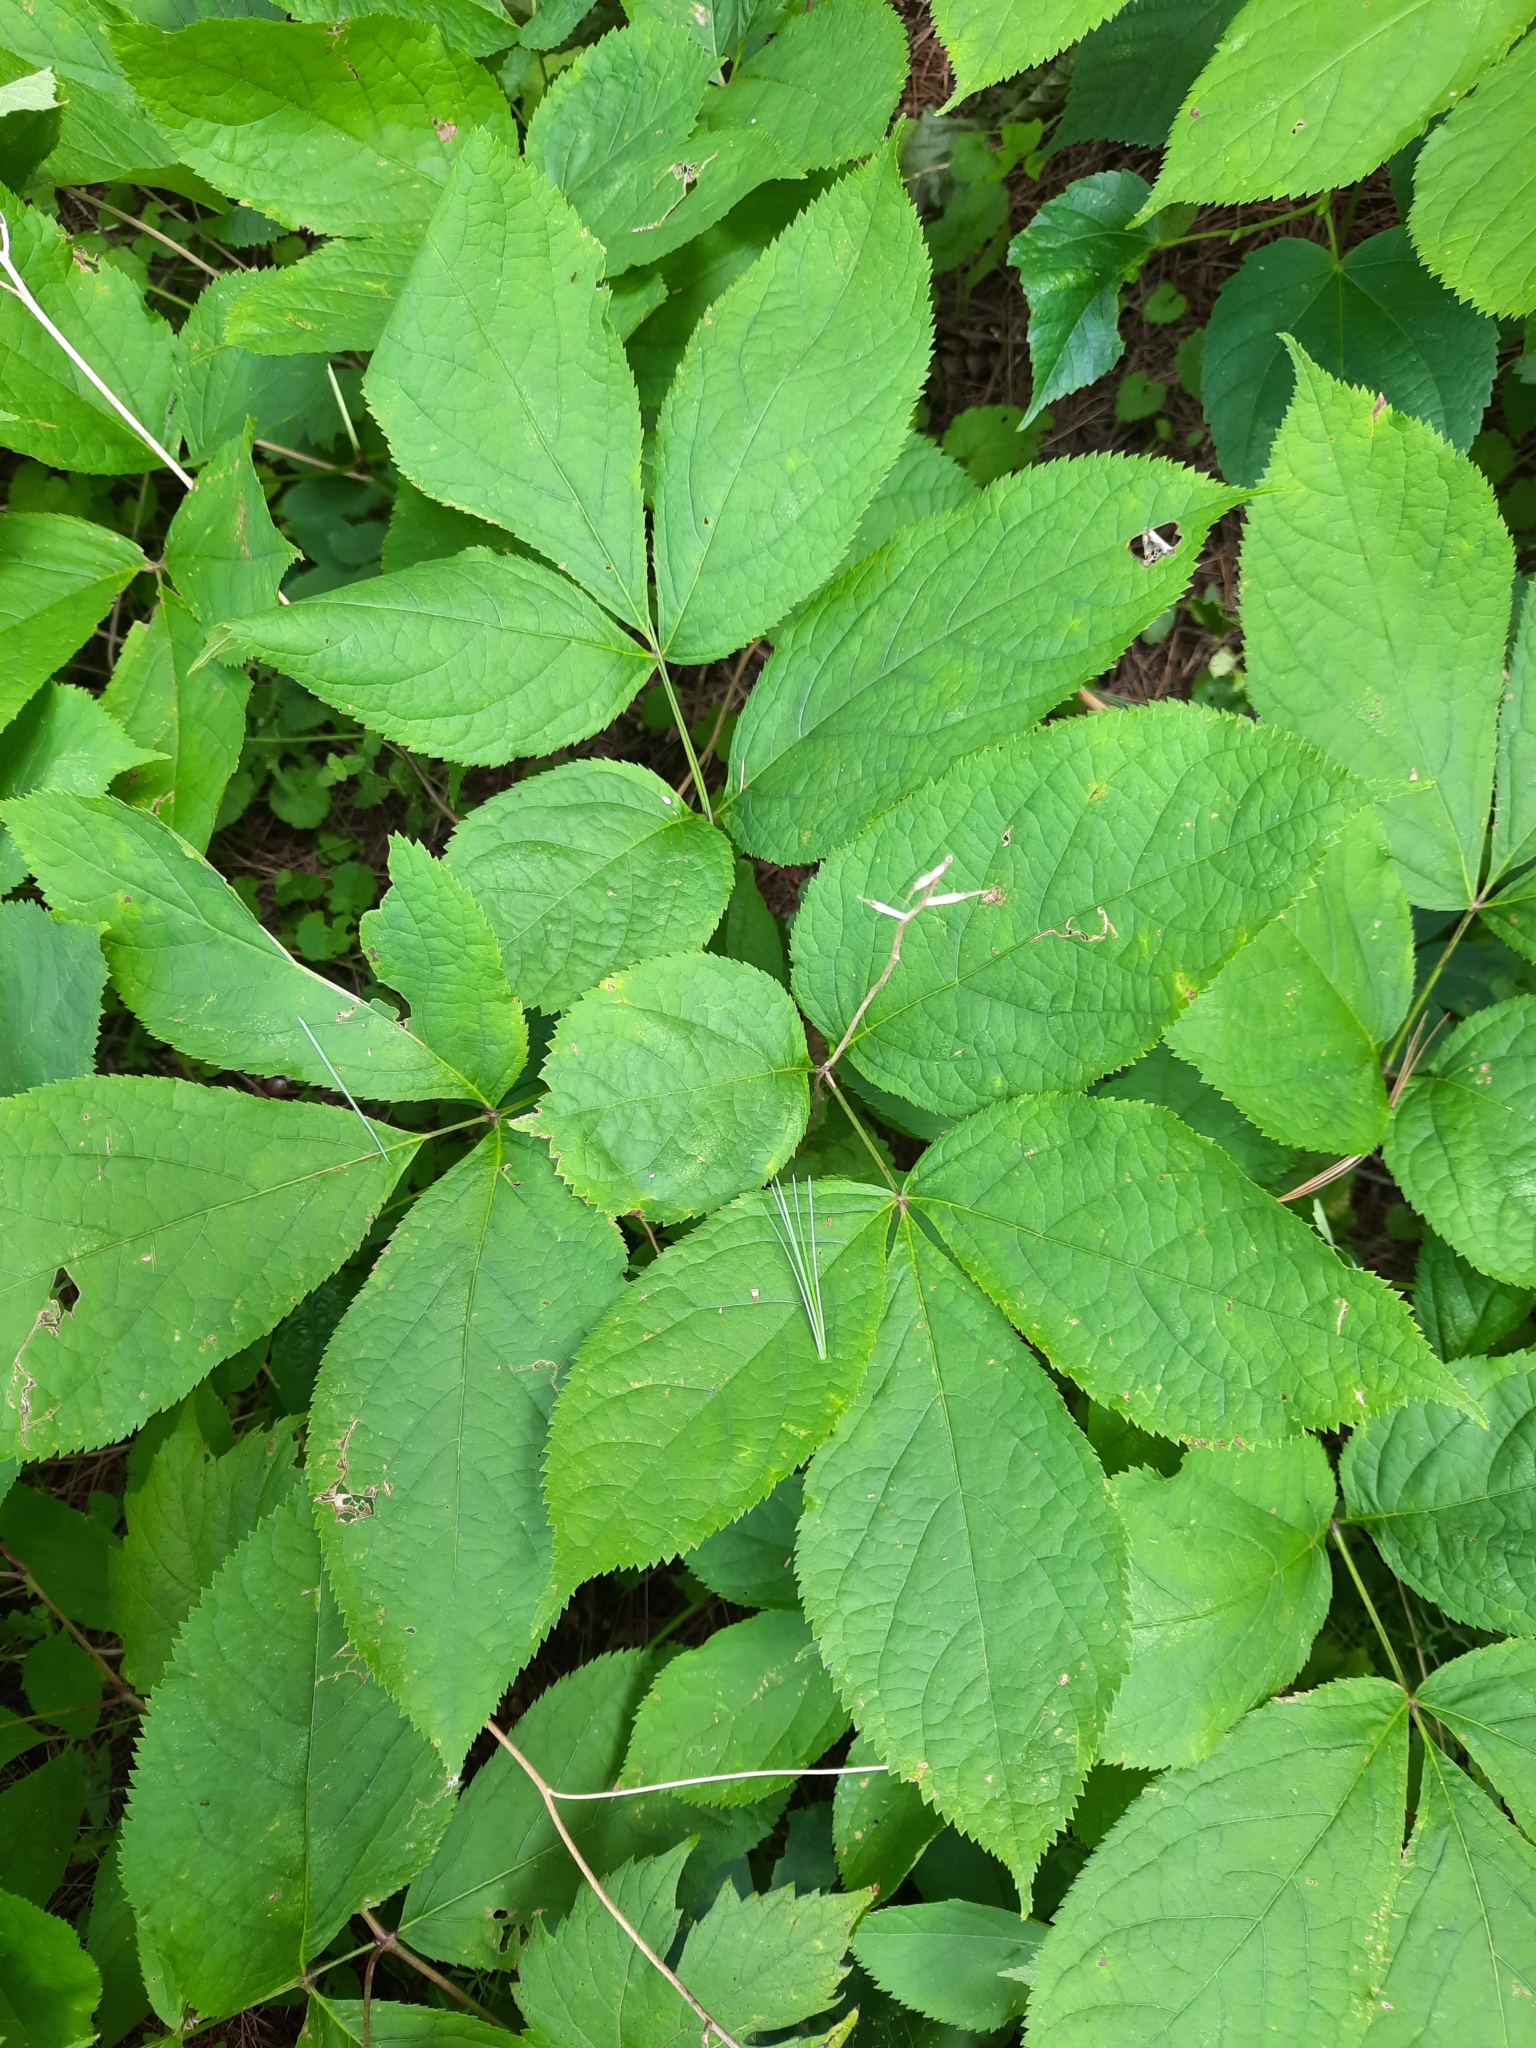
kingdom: Plantae
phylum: Tracheophyta
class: Magnoliopsida
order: Apiales
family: Araliaceae
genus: Aralia
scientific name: Aralia nudicaulis
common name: Wild sarsaparilla
